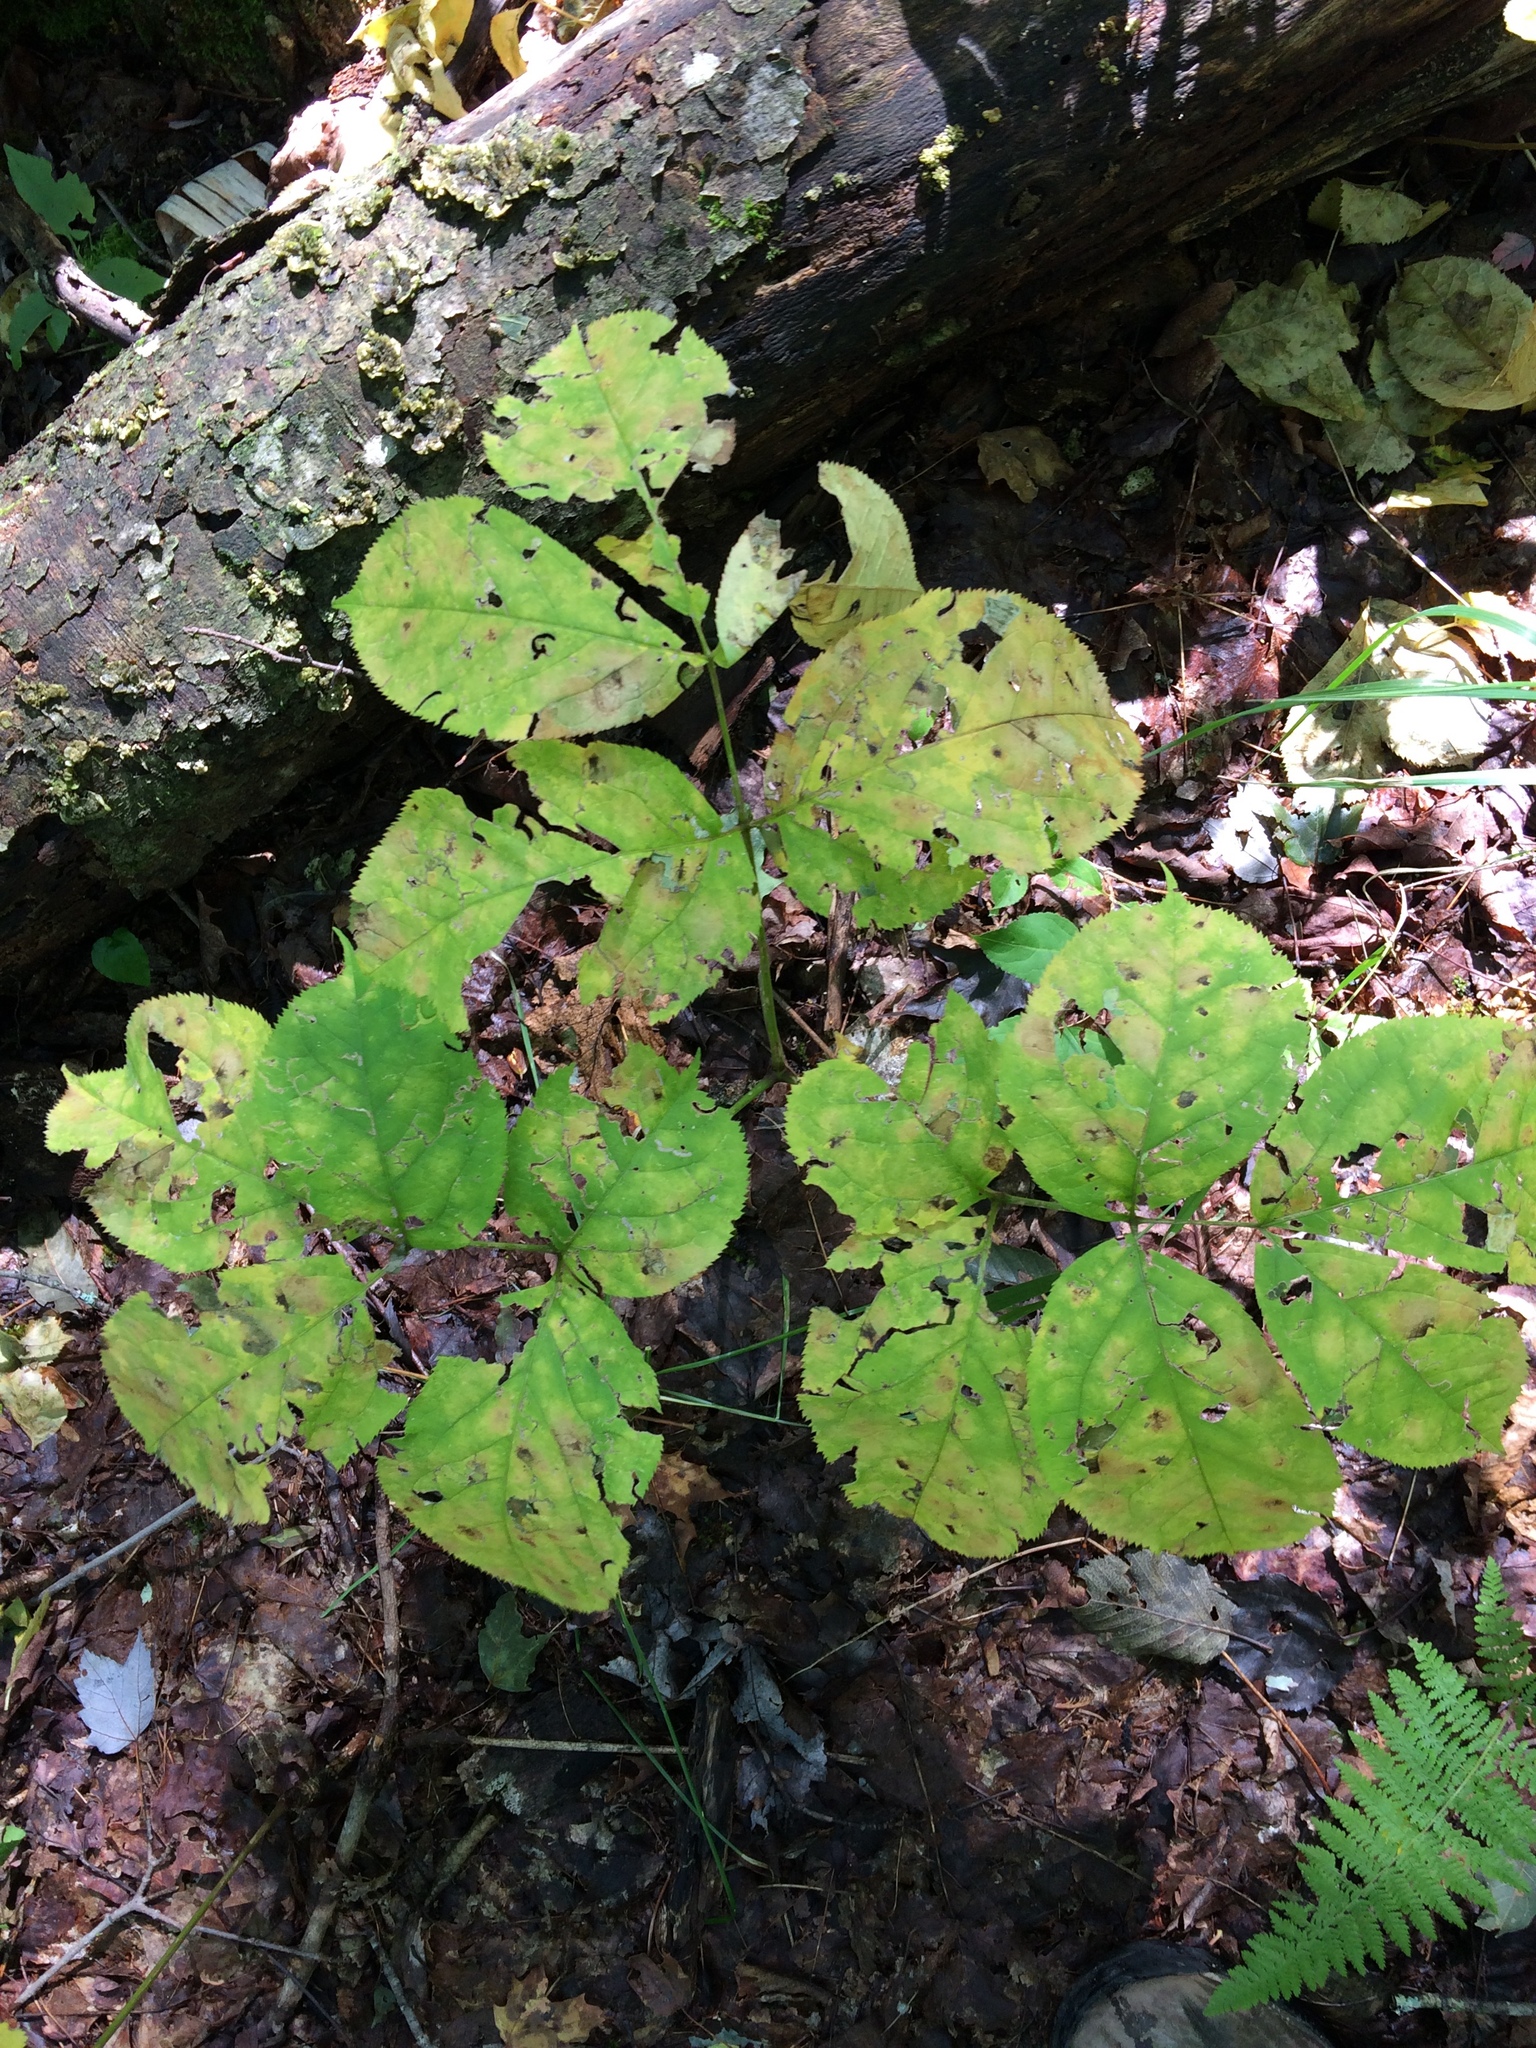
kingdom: Plantae
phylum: Tracheophyta
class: Magnoliopsida
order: Apiales
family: Araliaceae
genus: Aralia
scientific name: Aralia nudicaulis
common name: Wild sarsaparilla
